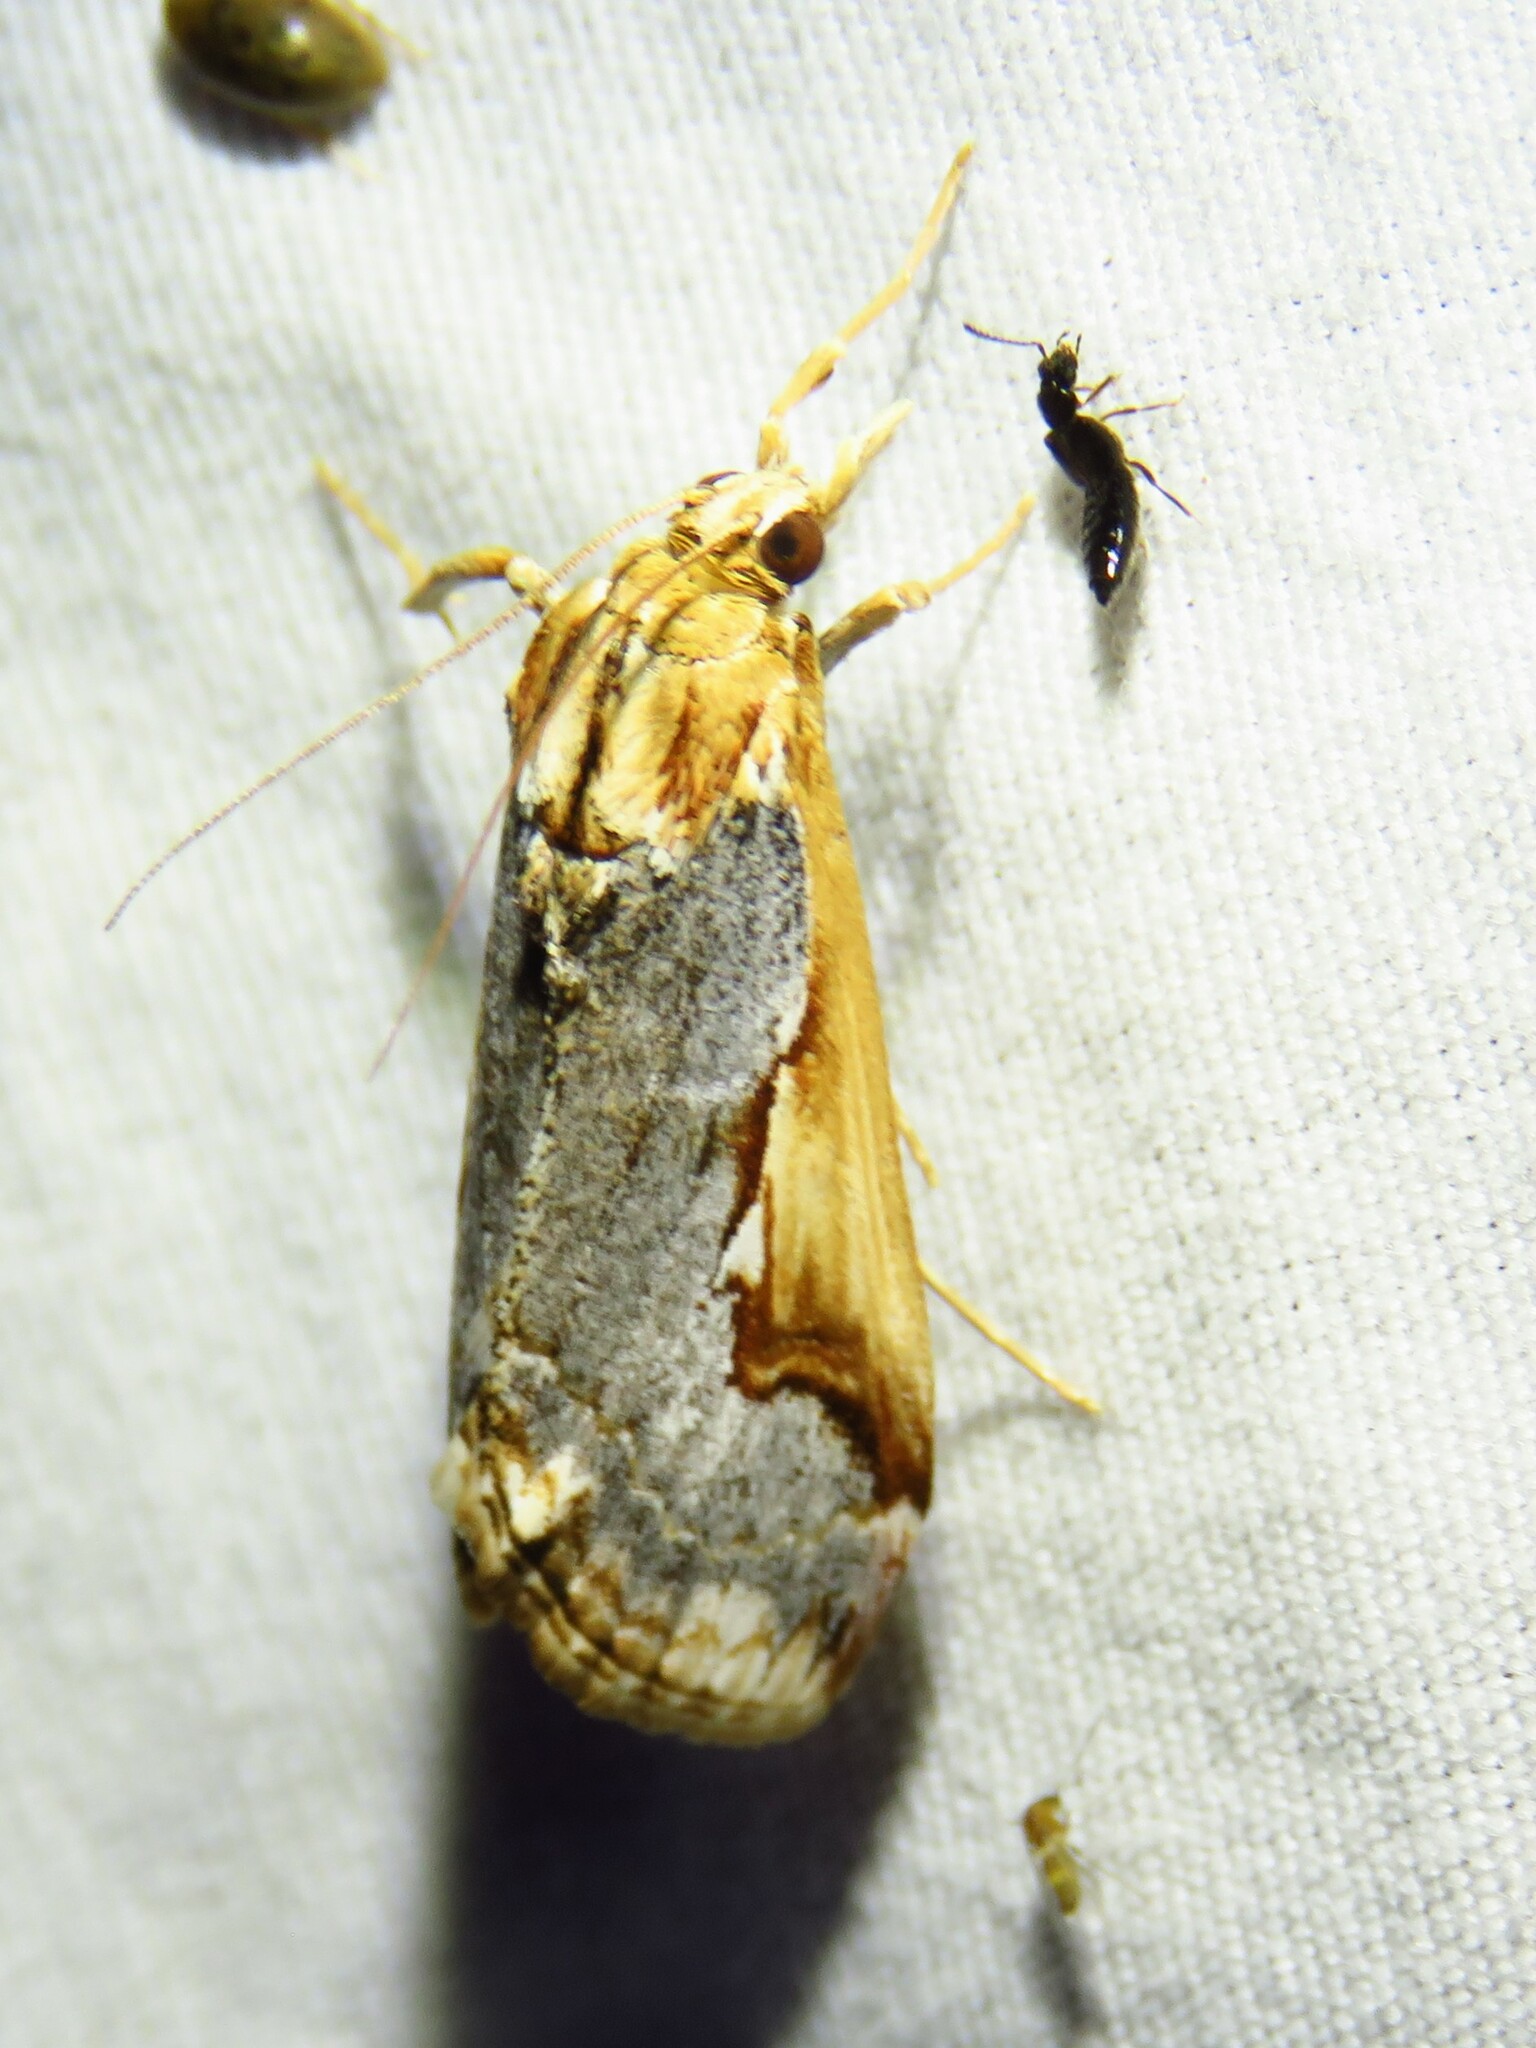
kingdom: Animalia
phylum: Arthropoda
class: Insecta
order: Lepidoptera
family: Crambidae
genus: Loxostege
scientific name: Loxostege albiceralis
